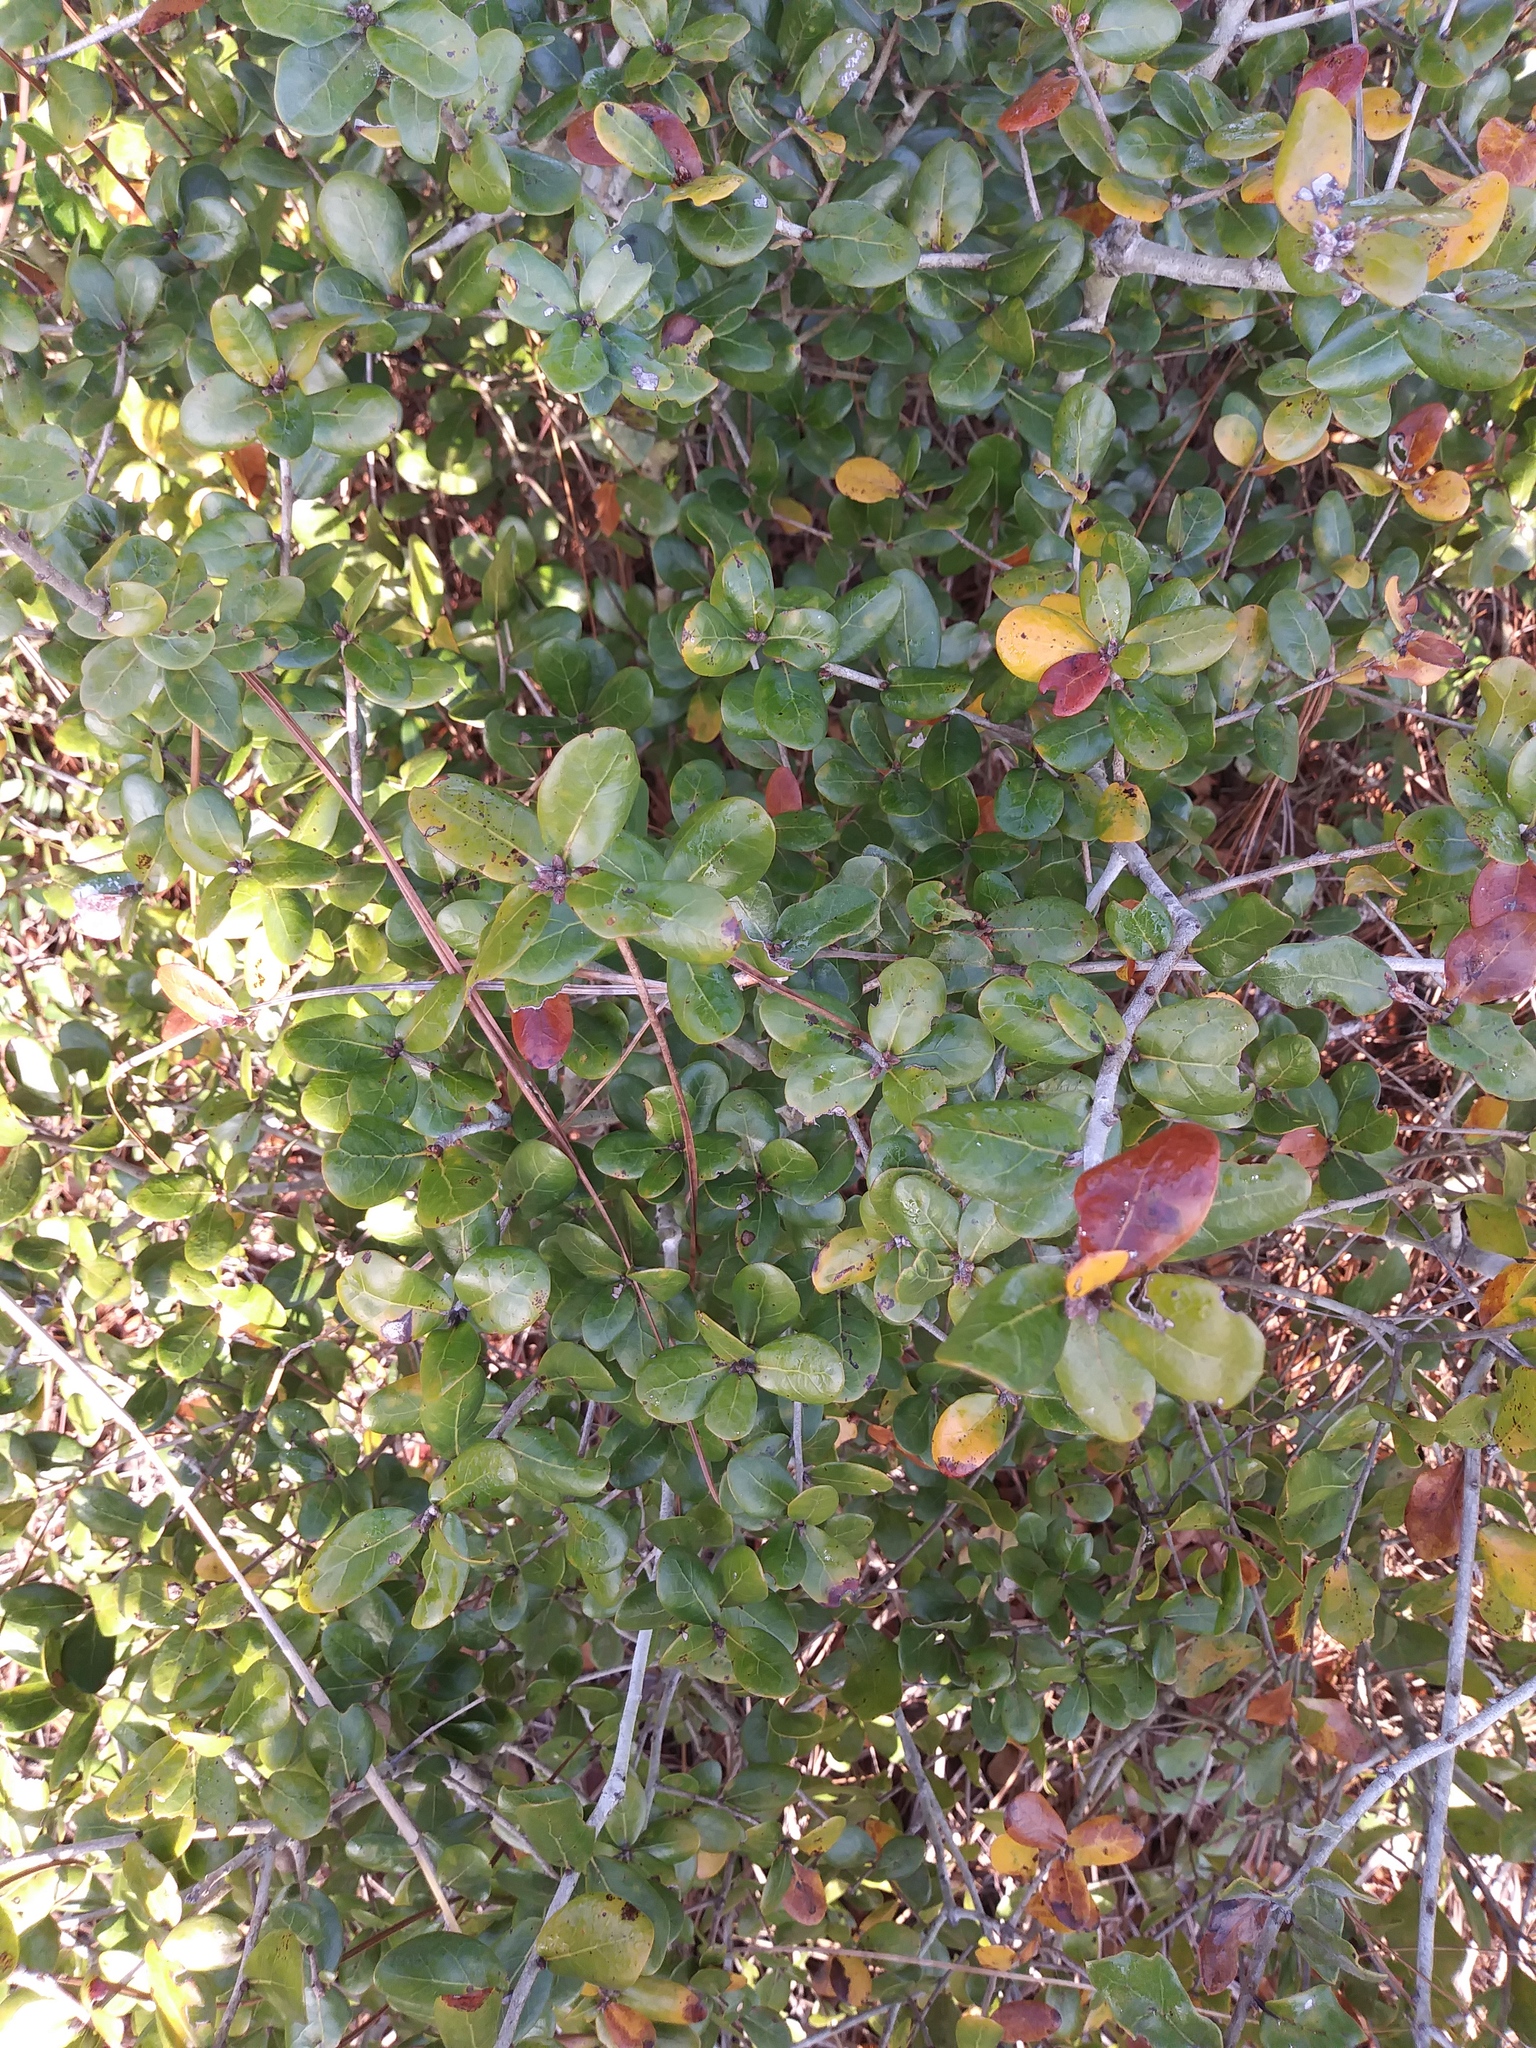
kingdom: Plantae
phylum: Tracheophyta
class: Magnoliopsida
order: Fagales
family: Fagaceae
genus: Quercus
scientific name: Quercus myrtifolia
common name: Myrtle oak
